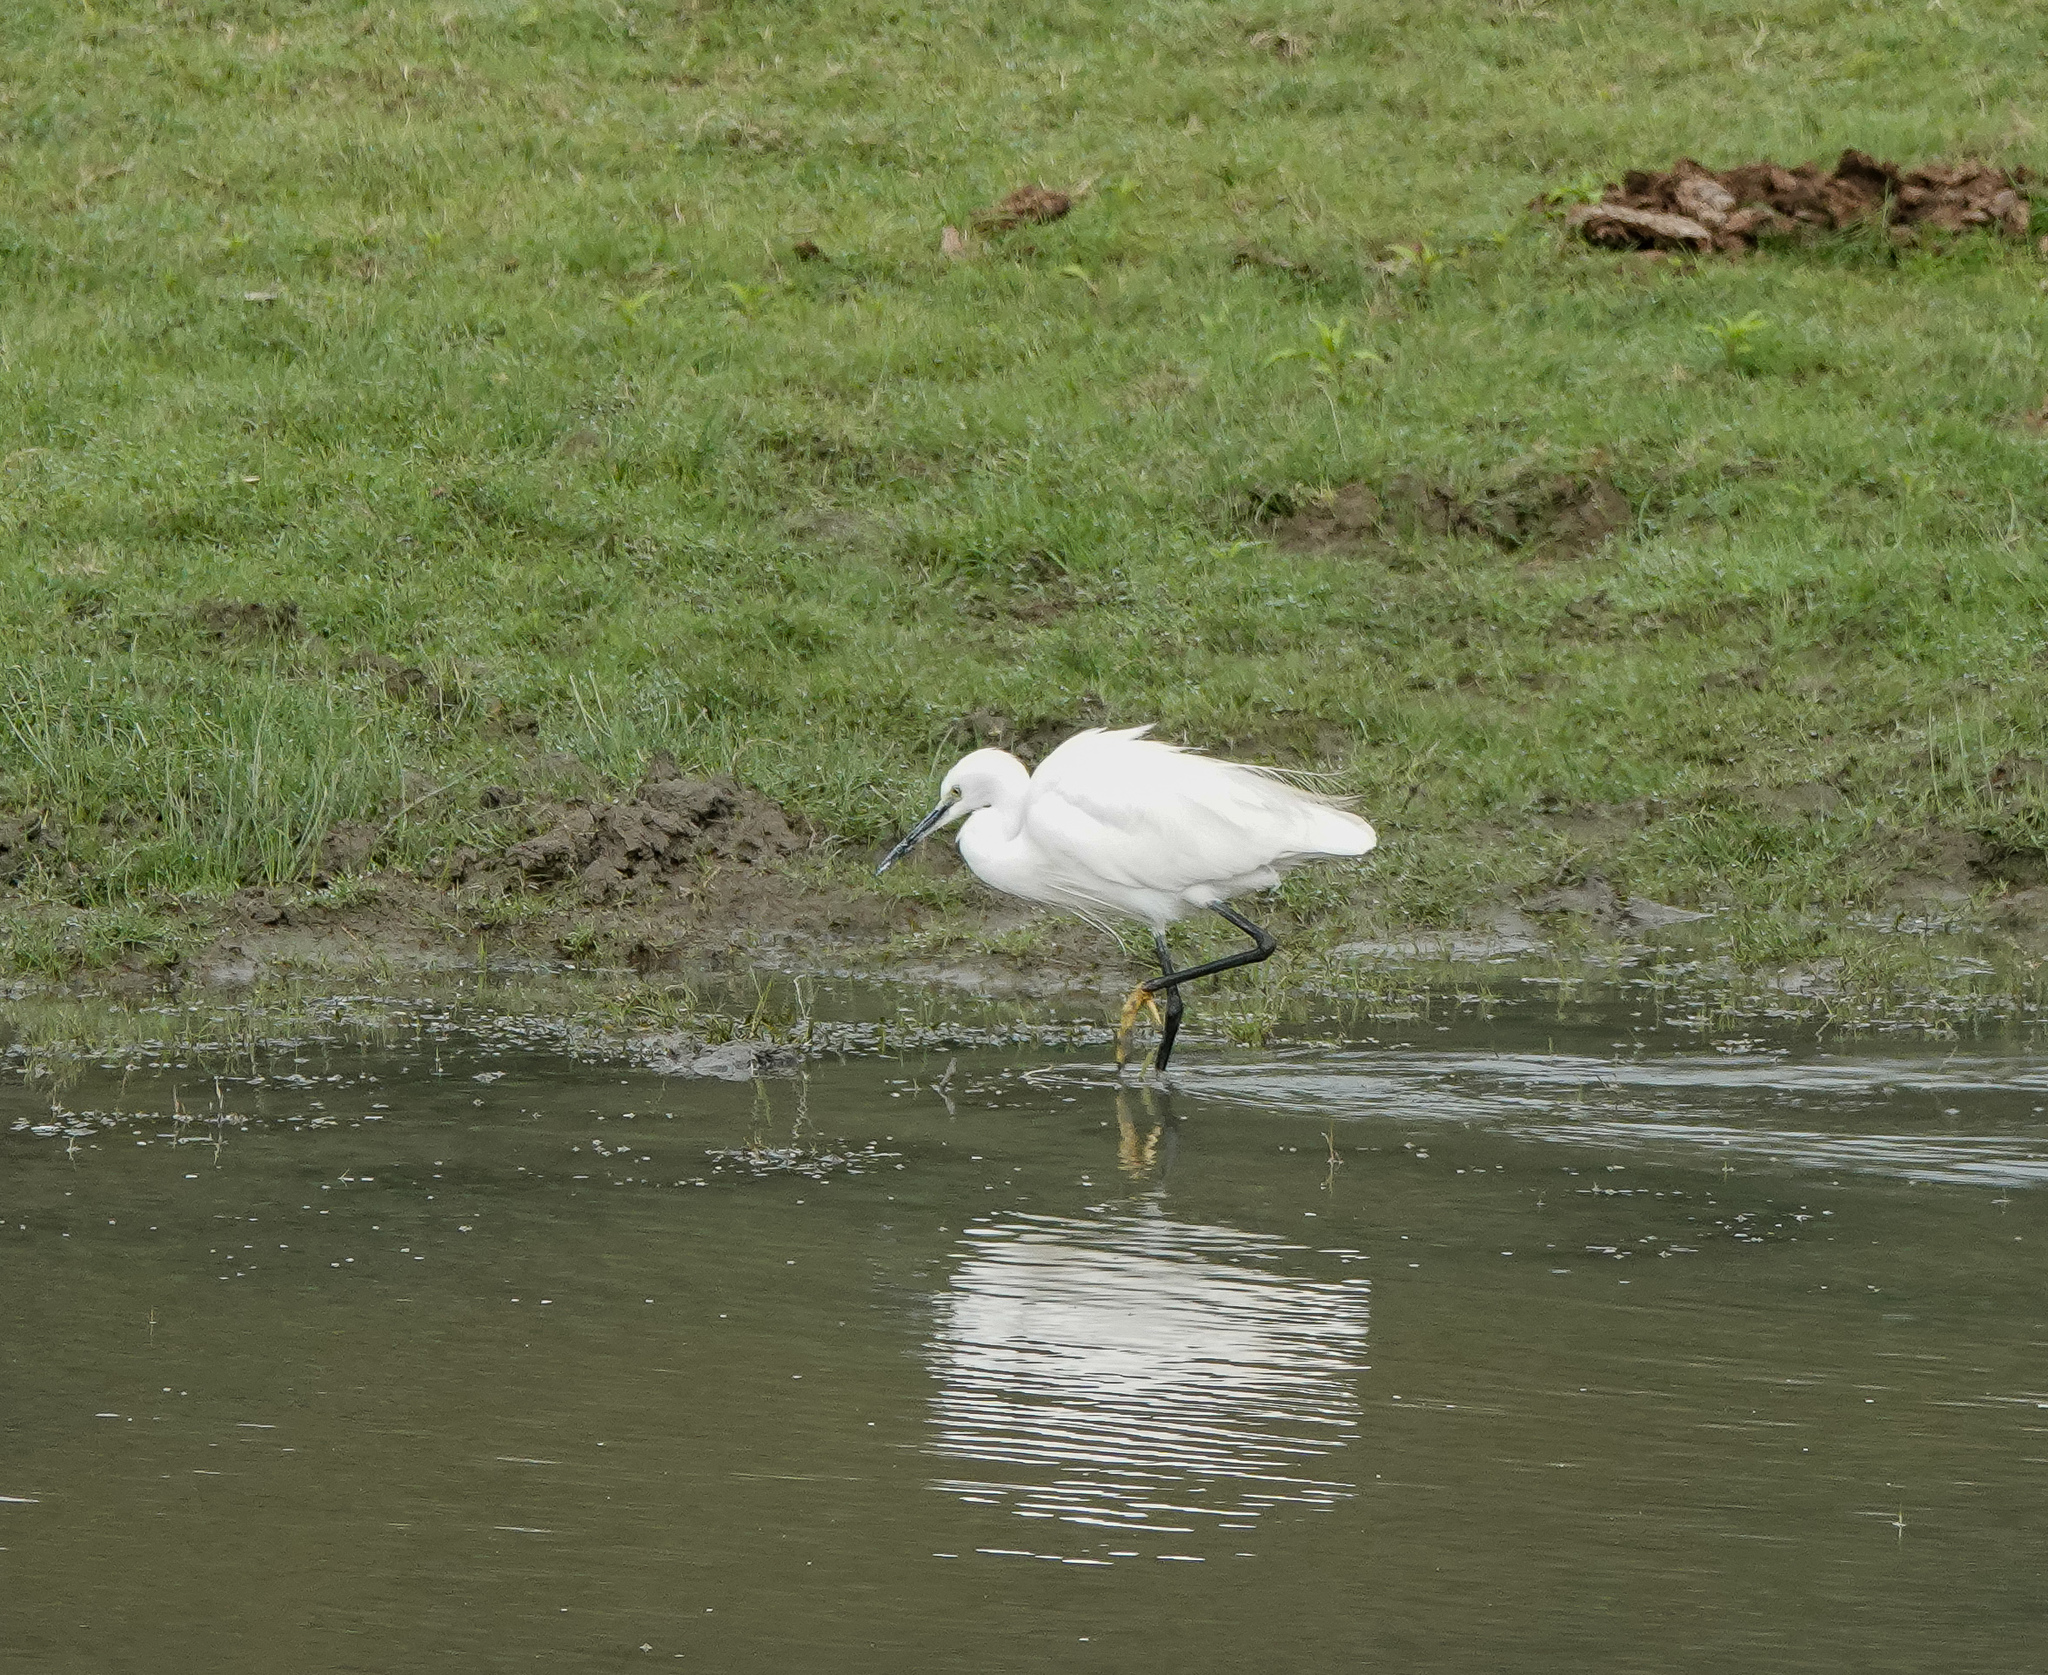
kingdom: Animalia
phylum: Chordata
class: Aves
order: Pelecaniformes
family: Ardeidae
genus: Egretta
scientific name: Egretta garzetta
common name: Little egret
